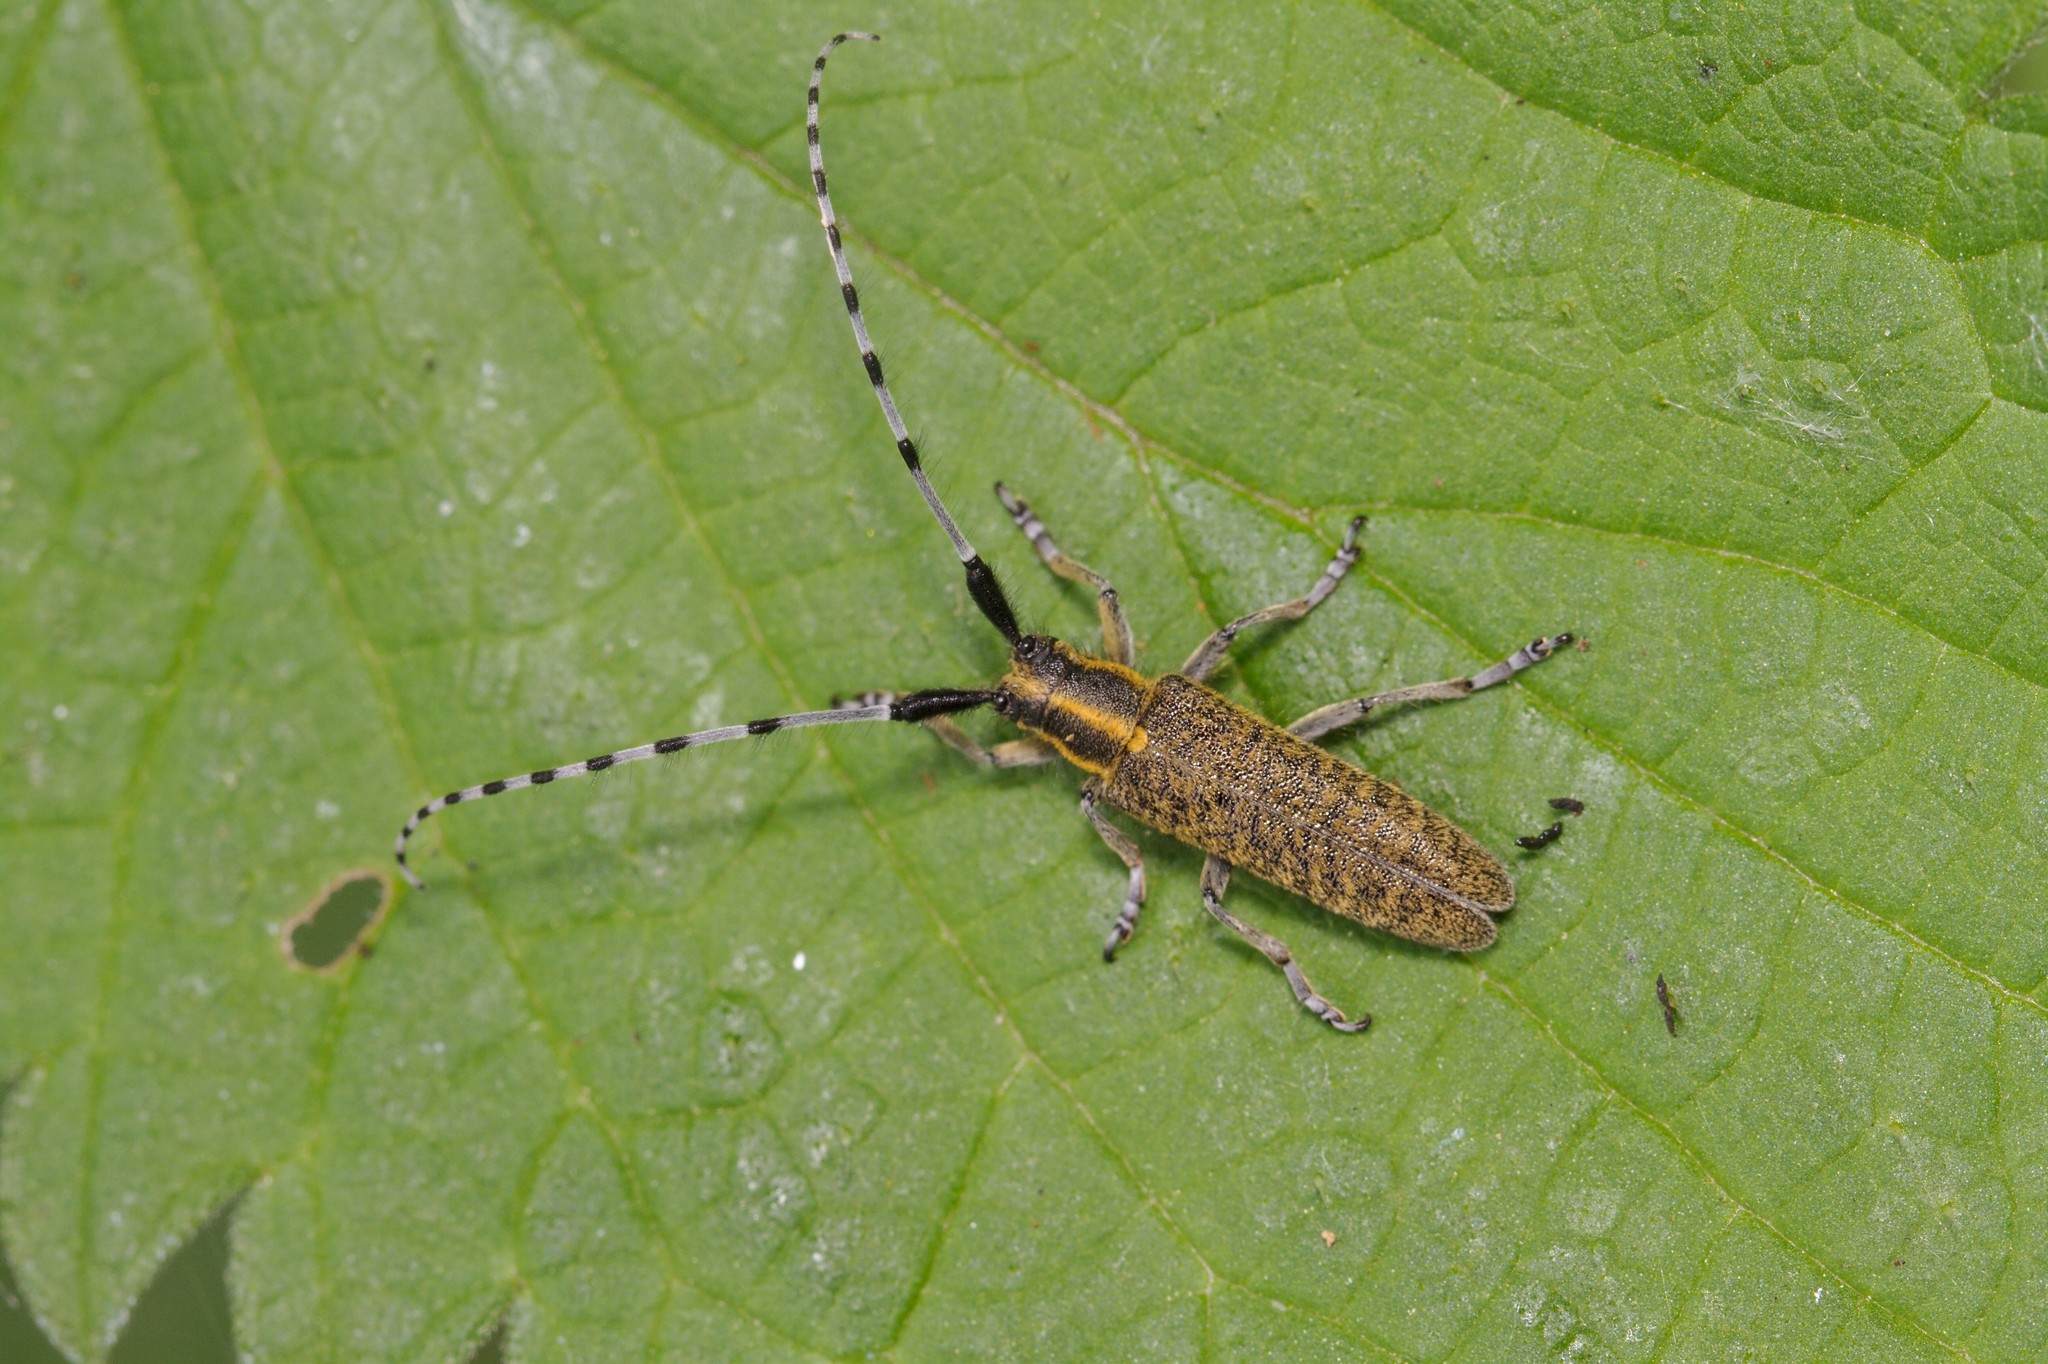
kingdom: Animalia
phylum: Arthropoda
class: Insecta
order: Coleoptera
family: Cerambycidae
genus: Agapanthia
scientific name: Agapanthia villosoviridescens
